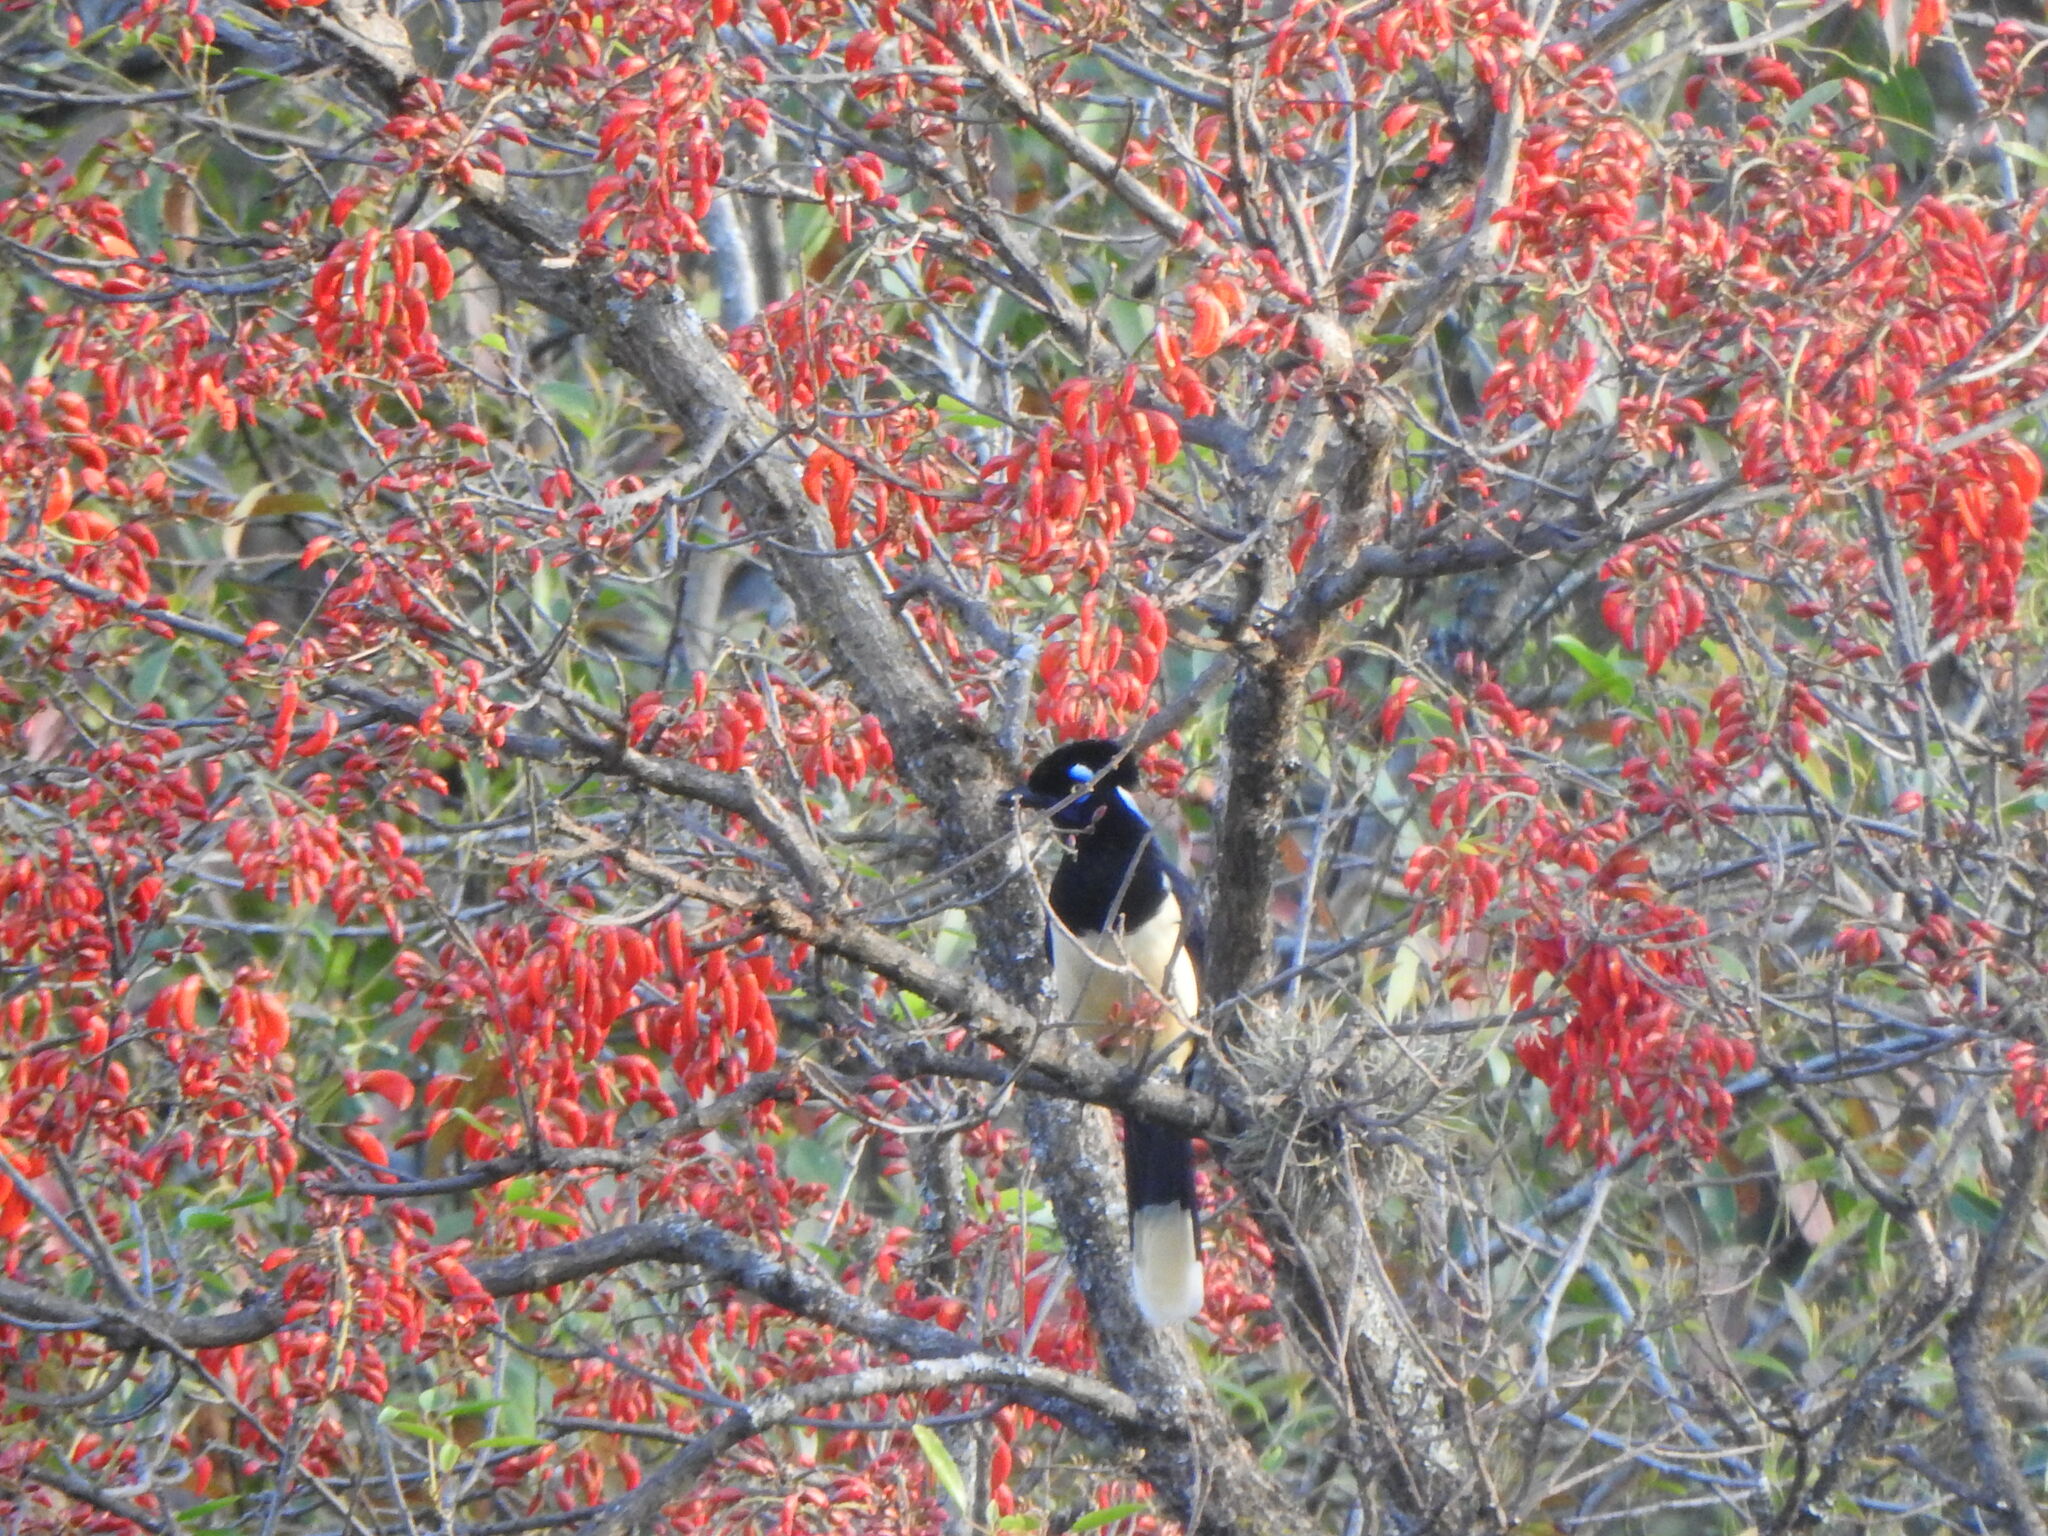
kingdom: Plantae
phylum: Tracheophyta
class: Magnoliopsida
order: Fabales
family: Fabaceae
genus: Erythrina
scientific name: Erythrina falcata
